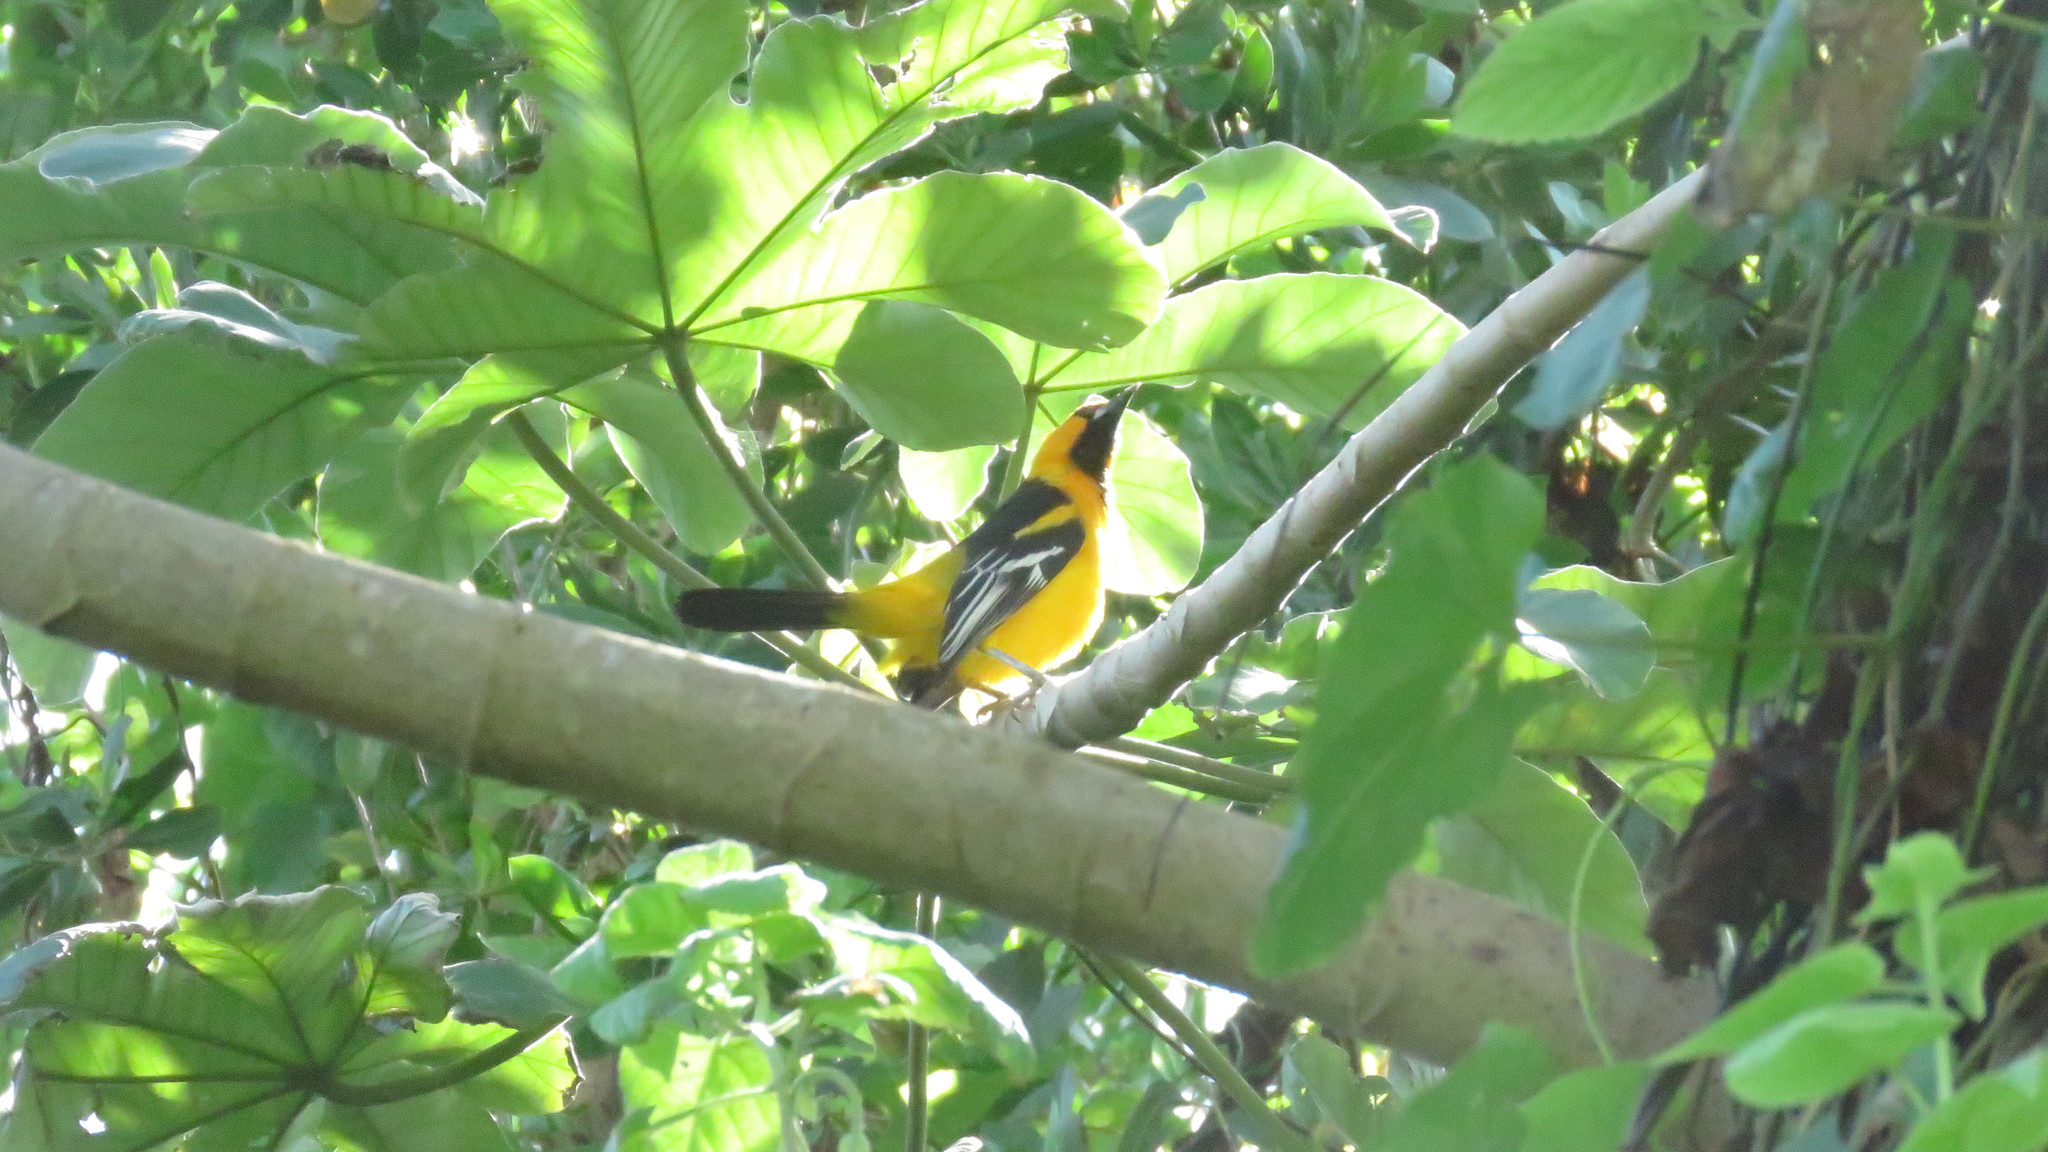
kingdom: Animalia
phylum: Chordata
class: Aves
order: Passeriformes
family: Icteridae
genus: Icterus
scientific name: Icterus gularis
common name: Altamira oriole
